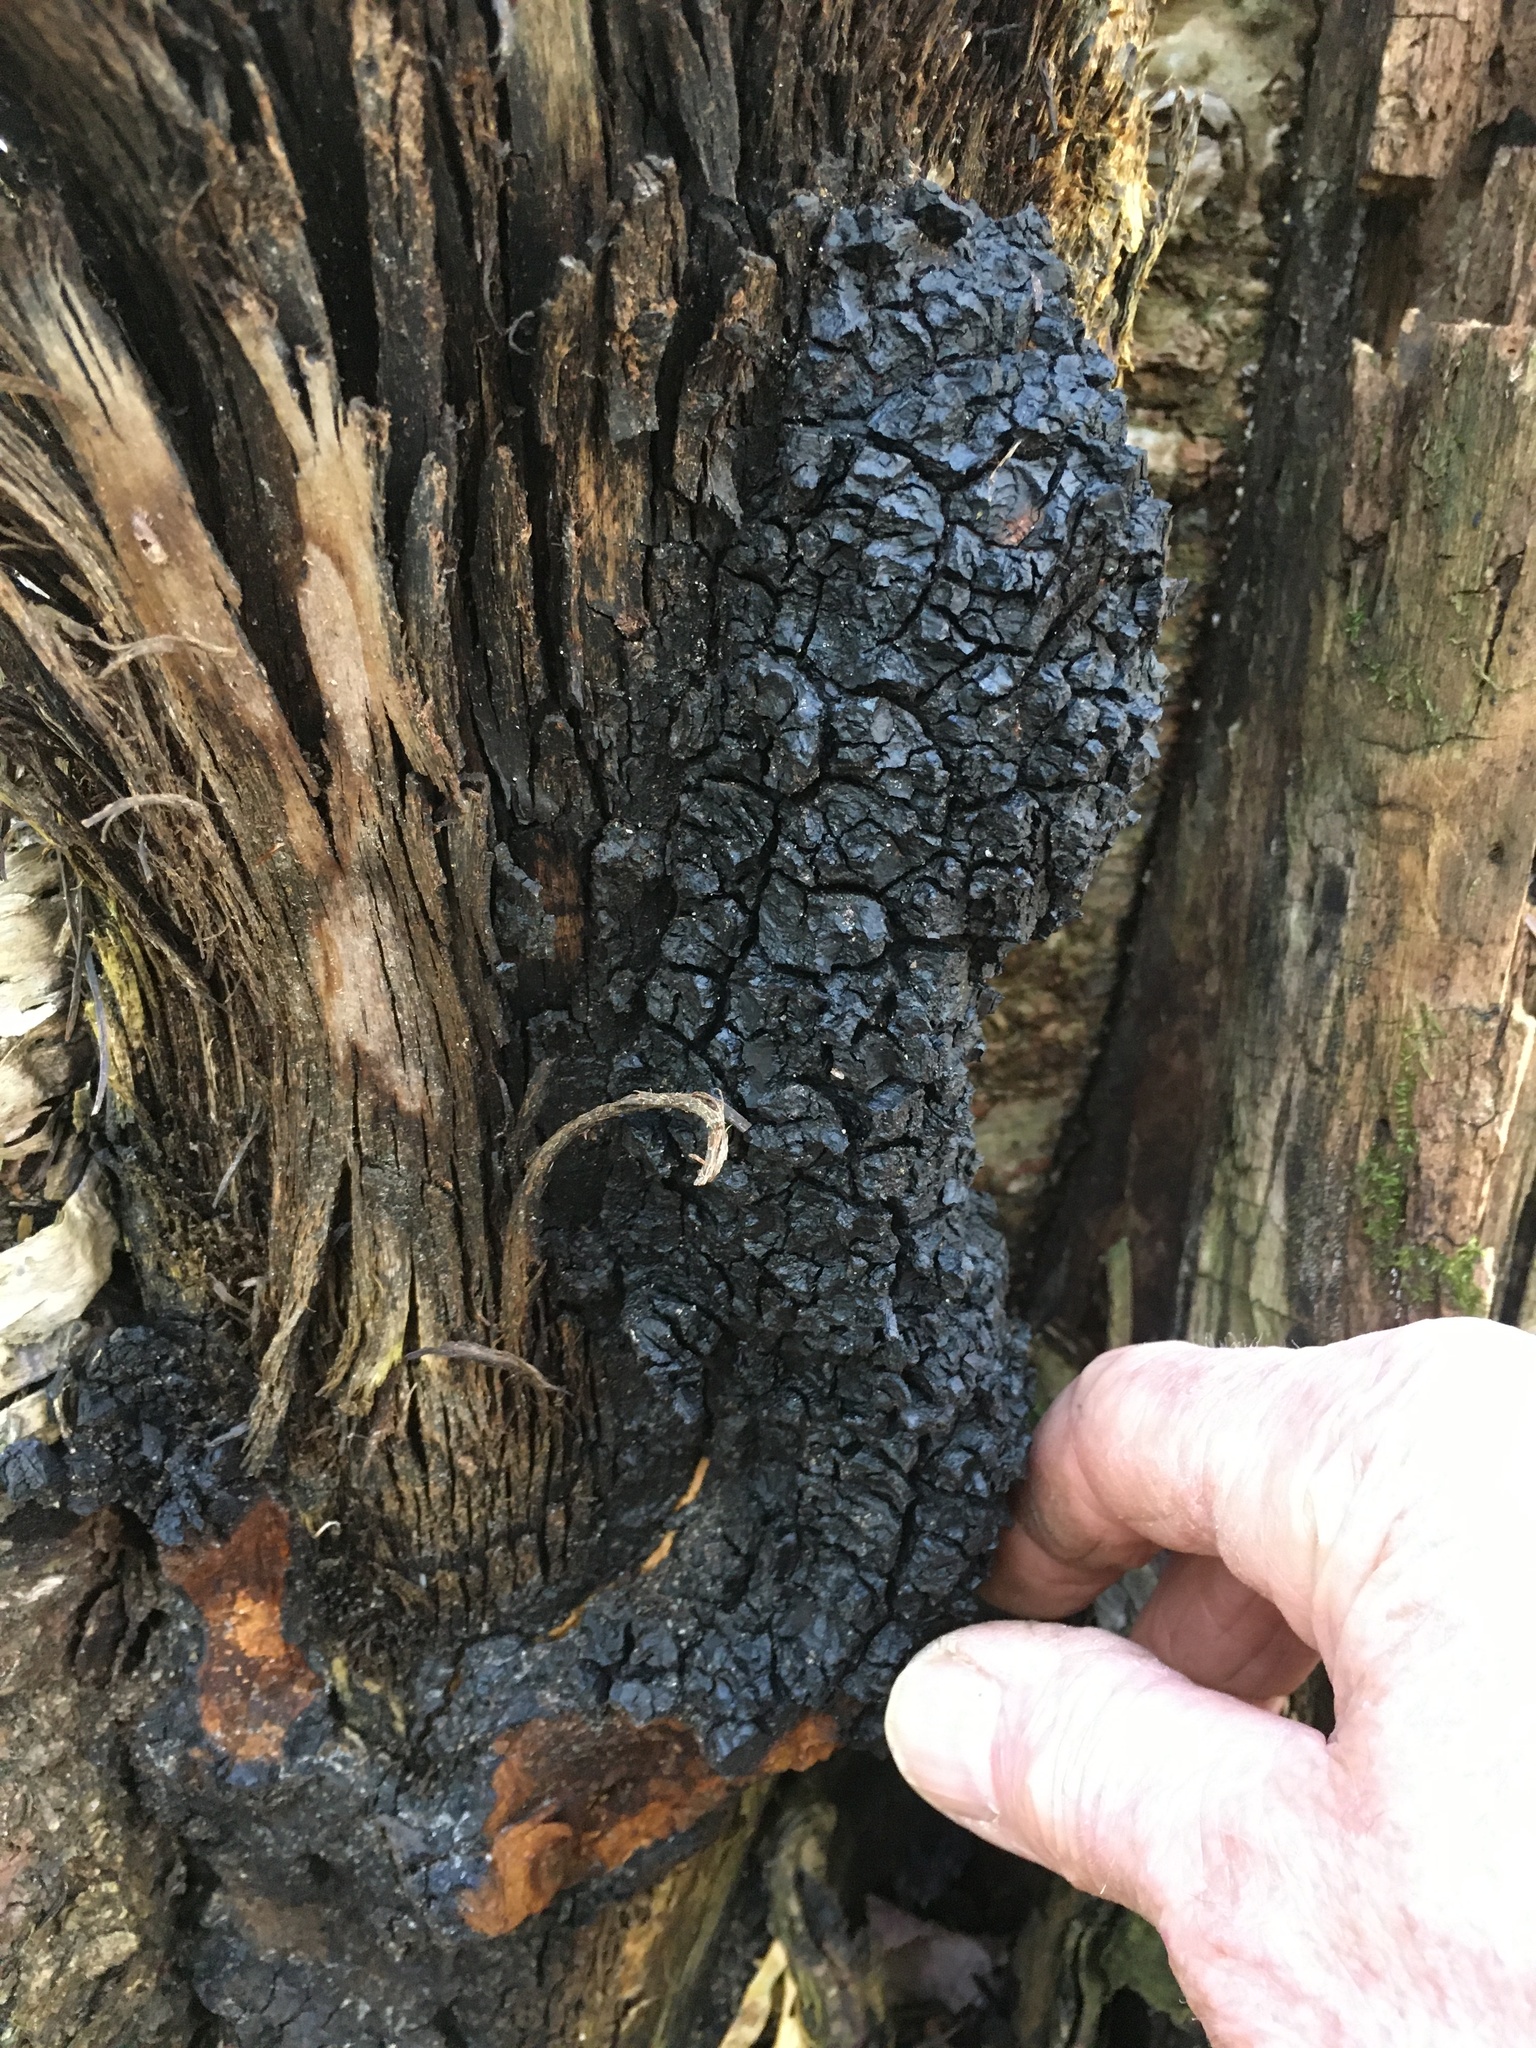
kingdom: Fungi
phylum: Basidiomycota
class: Agaricomycetes
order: Hymenochaetales
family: Hymenochaetaceae
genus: Inonotus
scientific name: Inonotus obliquus
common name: Chaga
